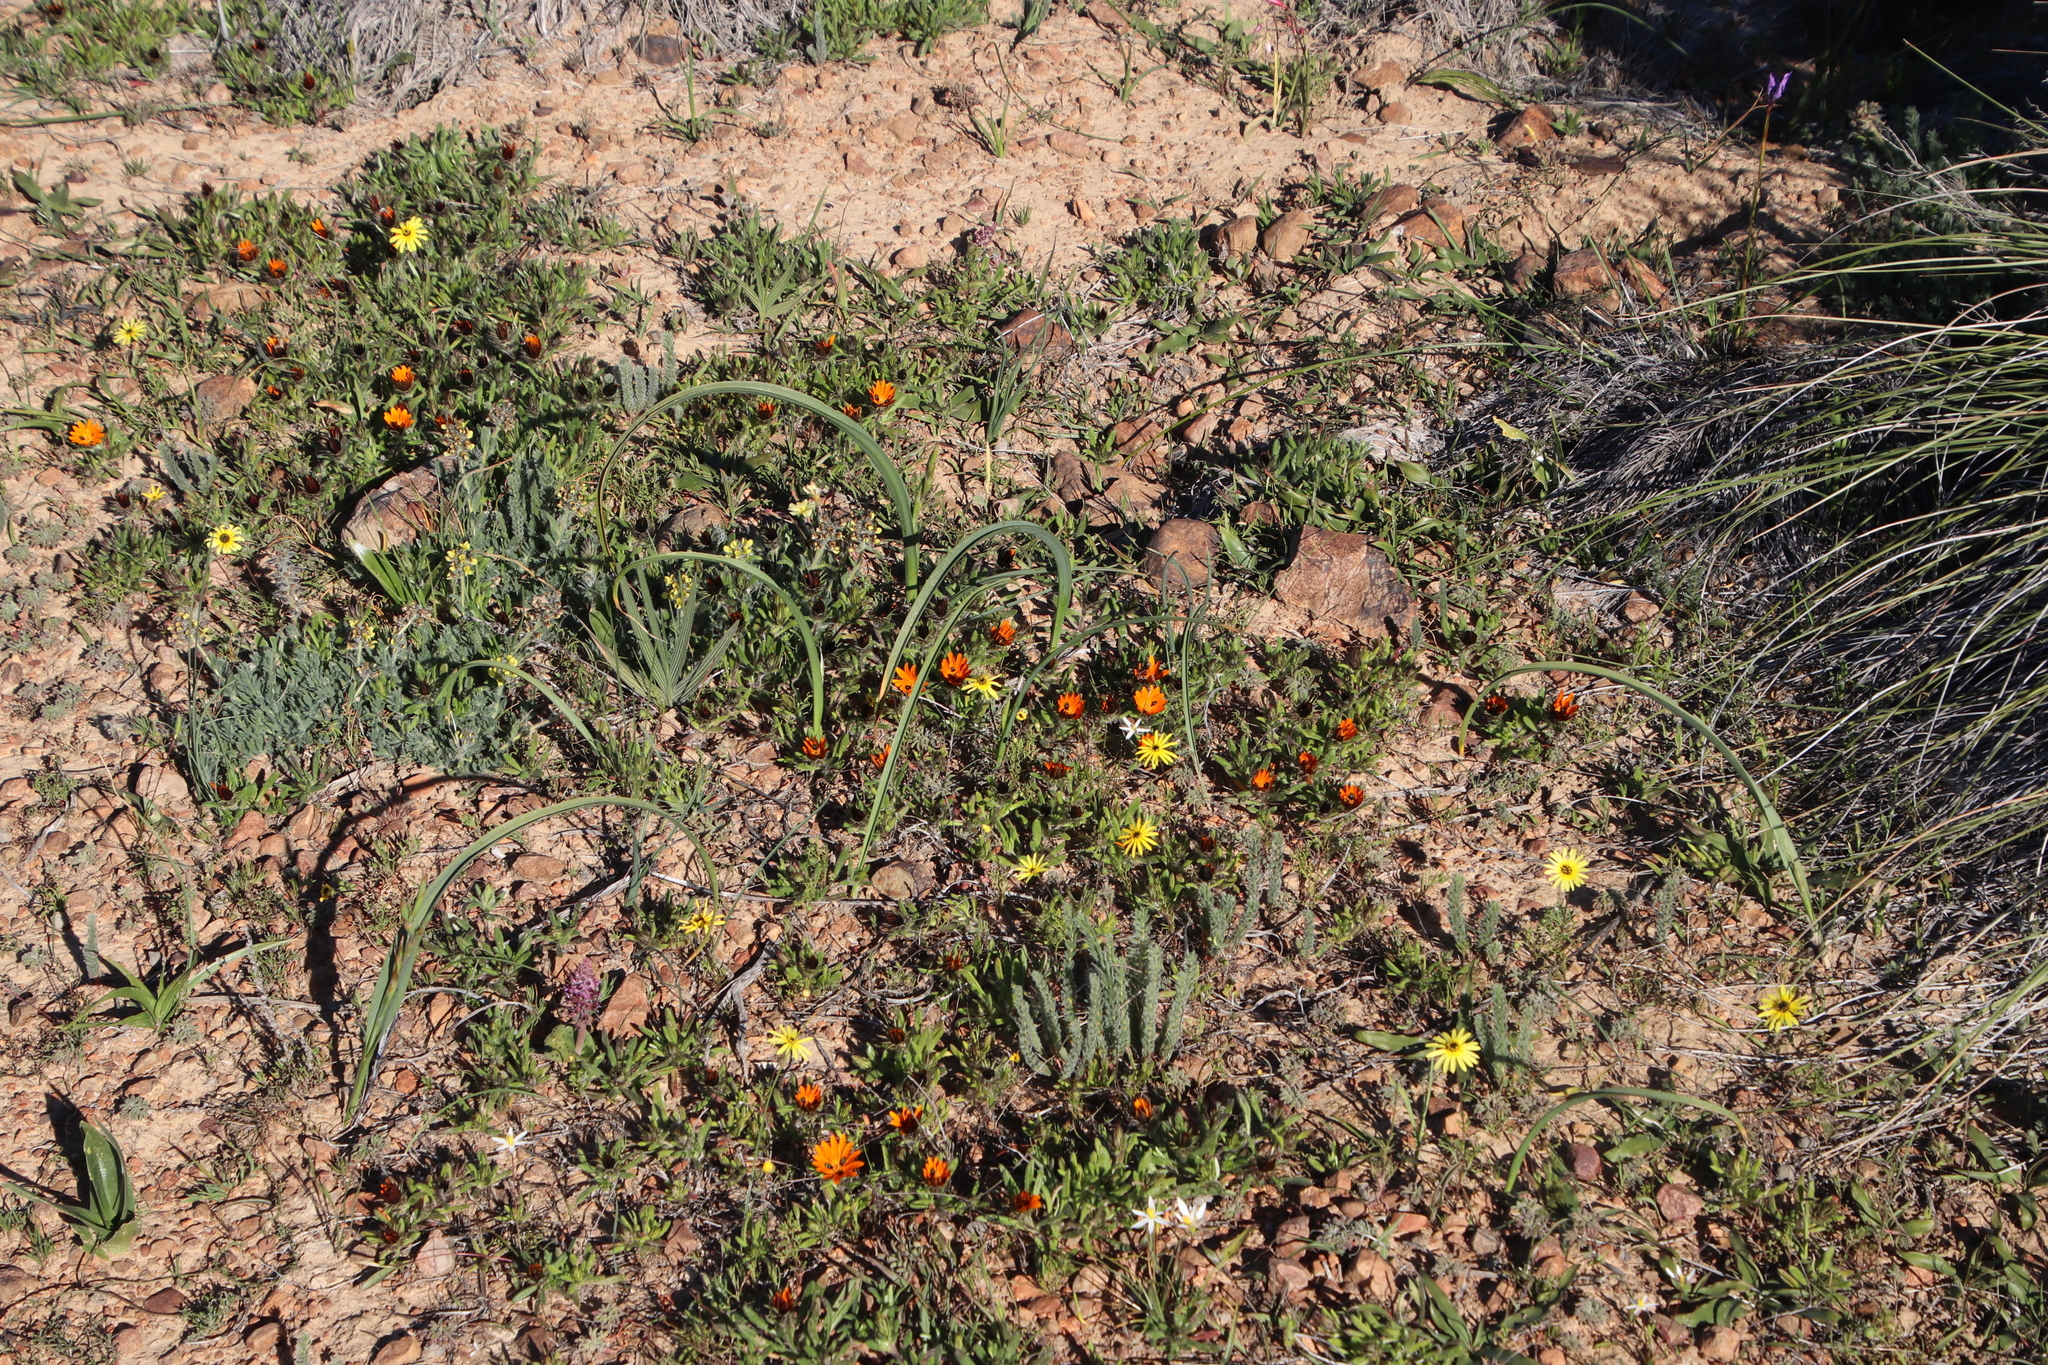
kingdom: Plantae
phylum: Tracheophyta
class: Magnoliopsida
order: Asterales
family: Asteraceae
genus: Gorteria
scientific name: Gorteria diffusa
